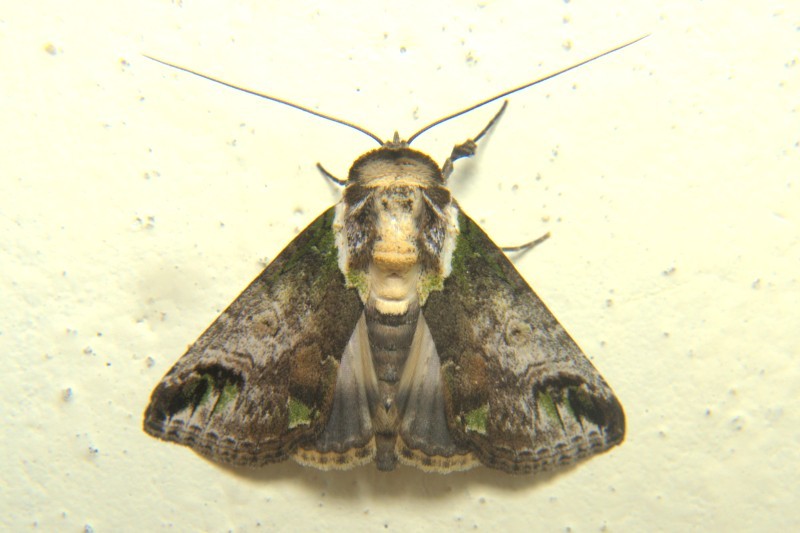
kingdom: Animalia
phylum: Arthropoda
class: Insecta
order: Lepidoptera
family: Nolidae
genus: Risoba
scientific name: Risoba obstructa
